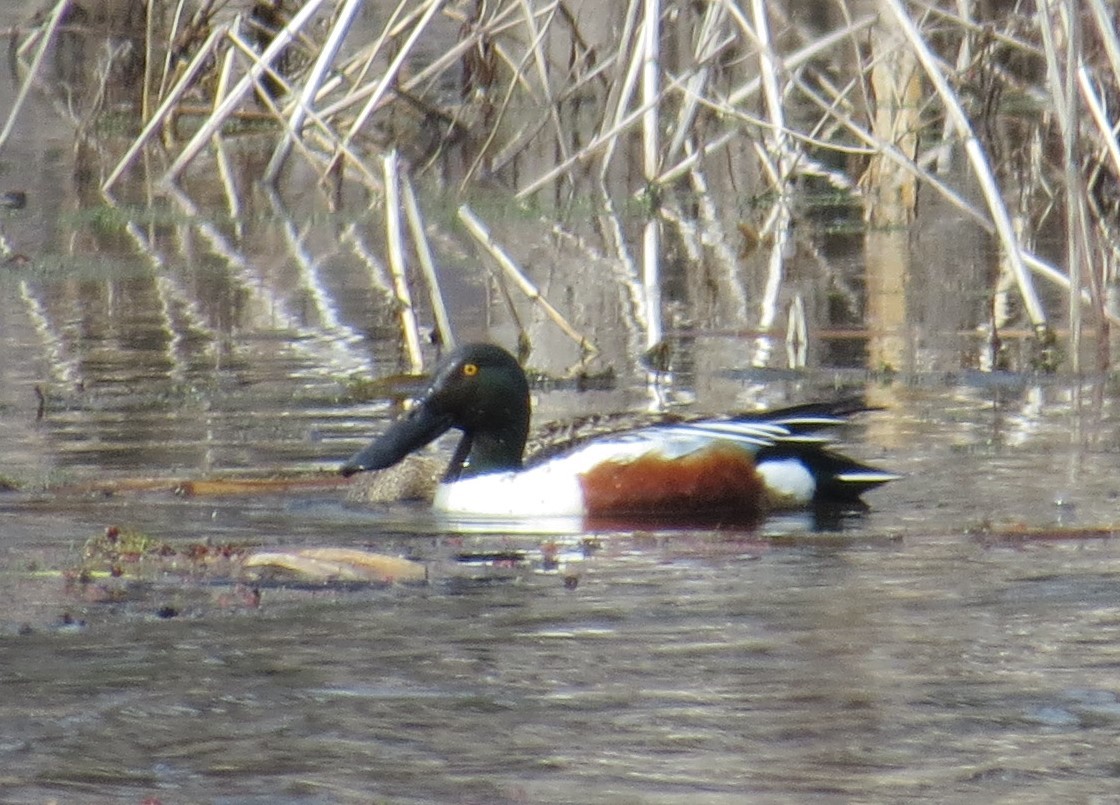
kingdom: Animalia
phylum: Chordata
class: Aves
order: Anseriformes
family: Anatidae
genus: Spatula
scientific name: Spatula clypeata
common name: Northern shoveler
